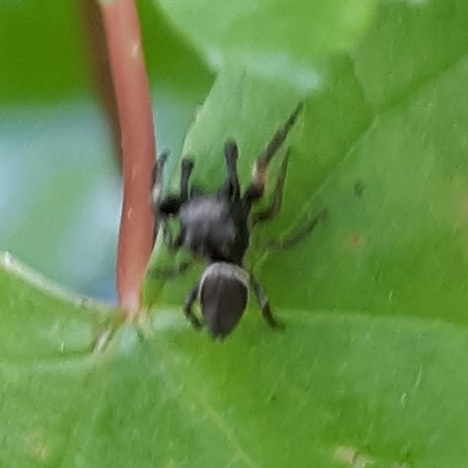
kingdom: Animalia
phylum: Arthropoda
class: Arachnida
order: Araneae
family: Salticidae
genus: Zygoballus
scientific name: Zygoballus nervosus
